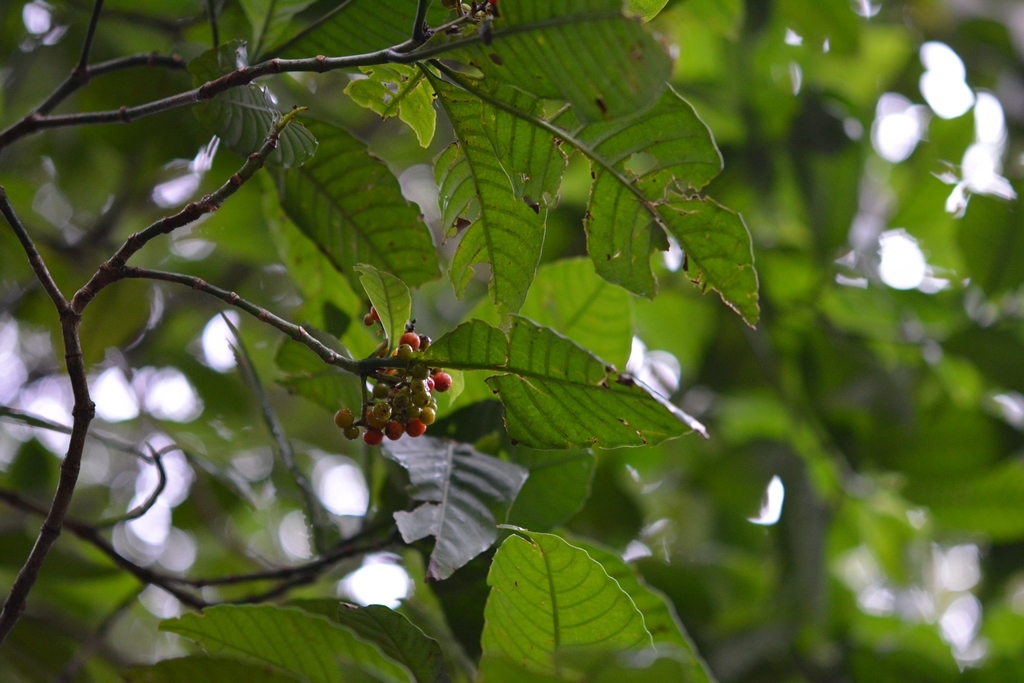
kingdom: Plantae
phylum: Tracheophyta
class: Magnoliopsida
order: Gentianales
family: Rubiaceae
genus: Psychotria
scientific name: Psychotria carthagenensis
